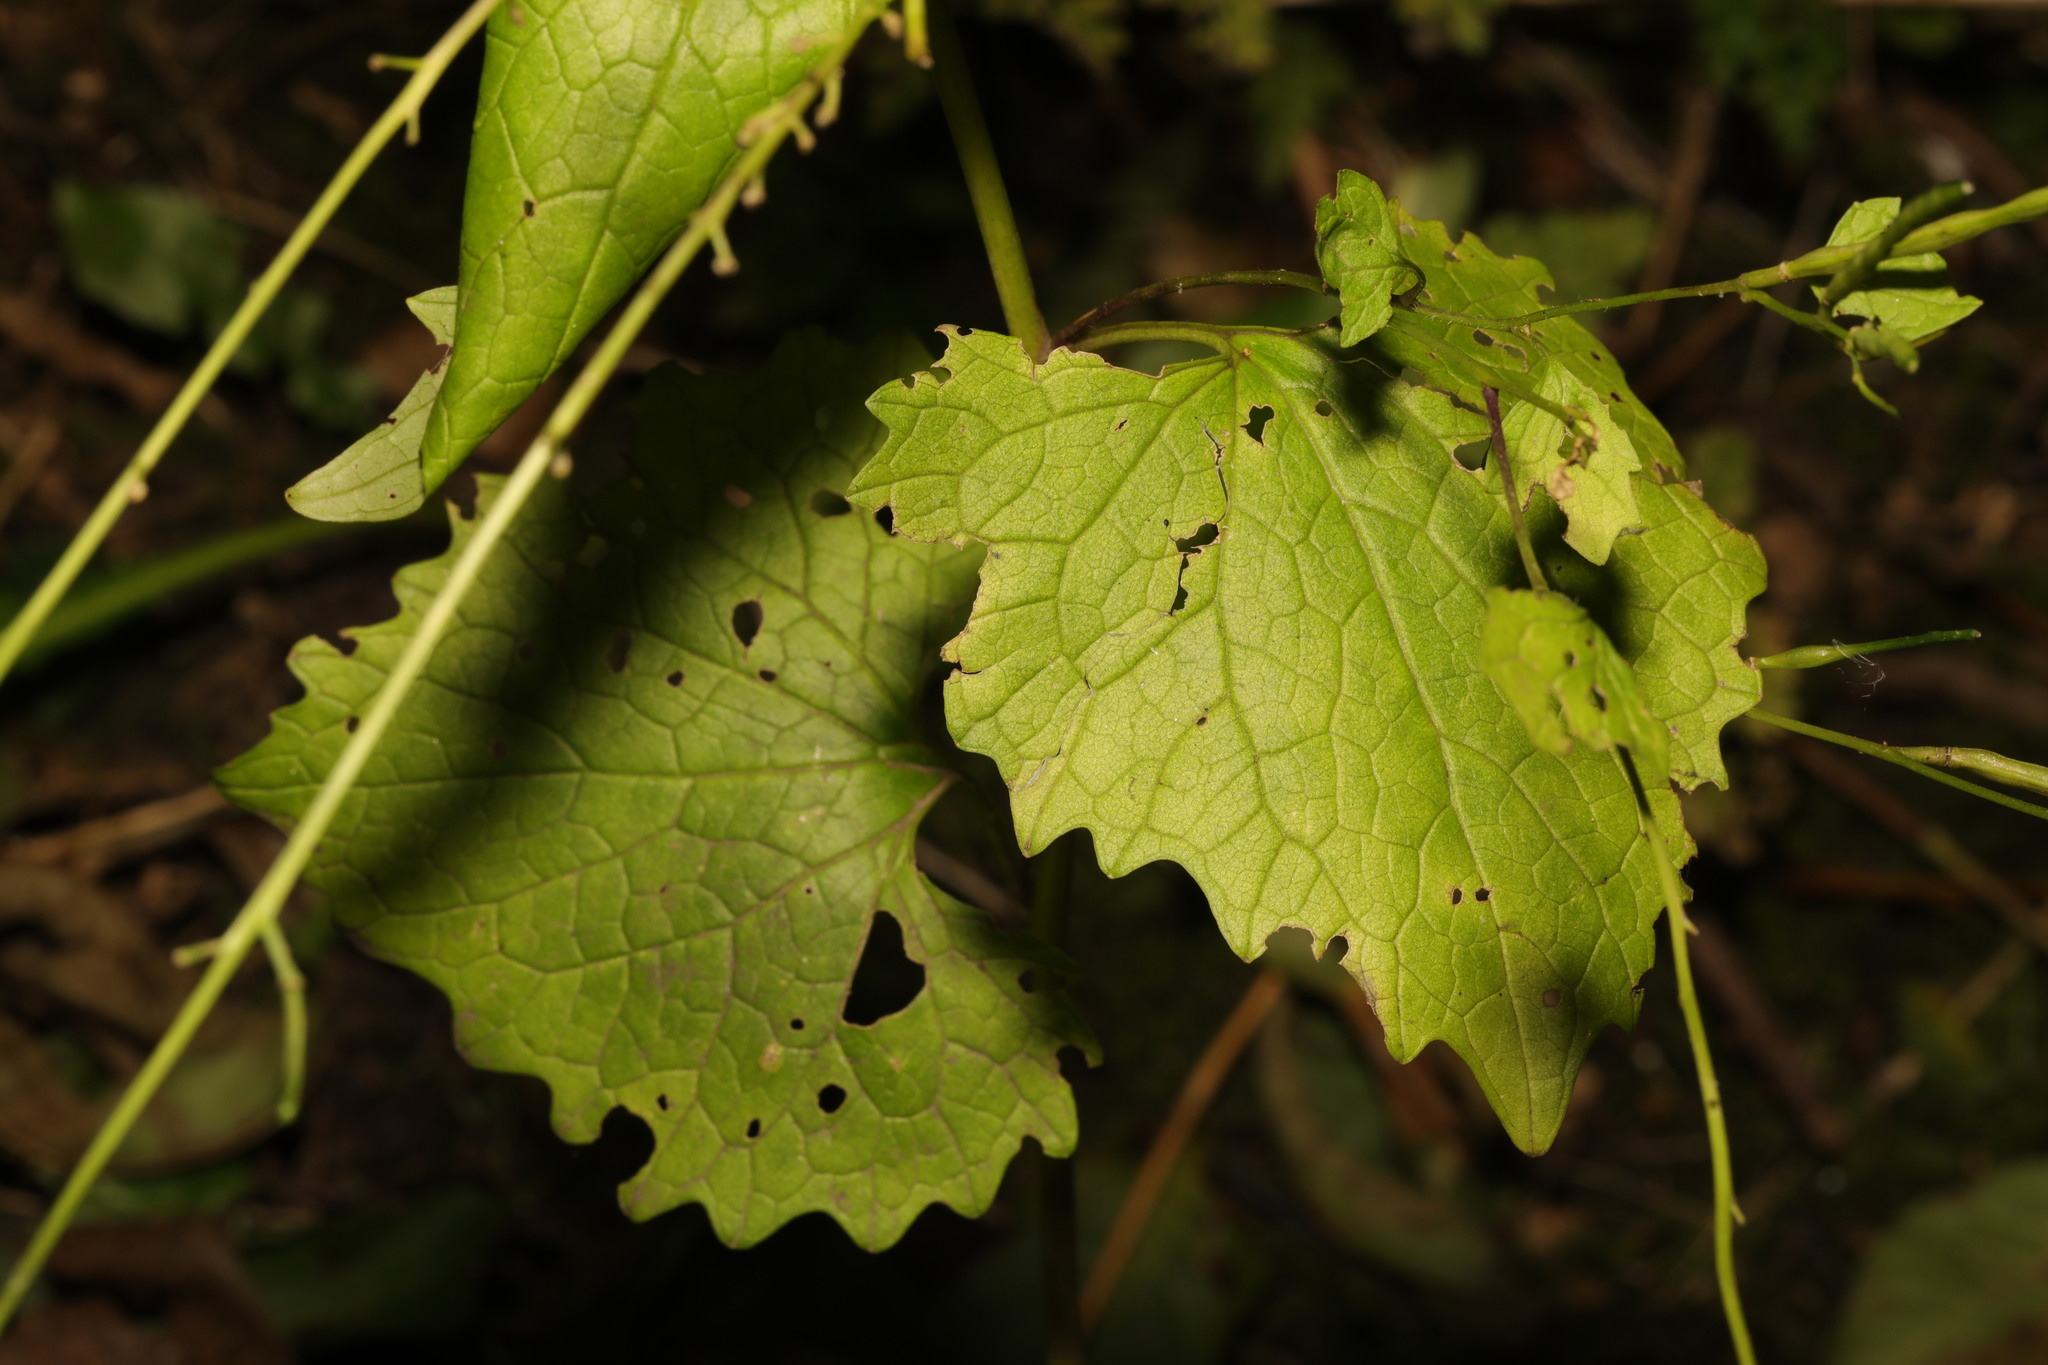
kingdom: Plantae
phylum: Tracheophyta
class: Magnoliopsida
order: Brassicales
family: Brassicaceae
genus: Alliaria
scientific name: Alliaria petiolata
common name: Garlic mustard
